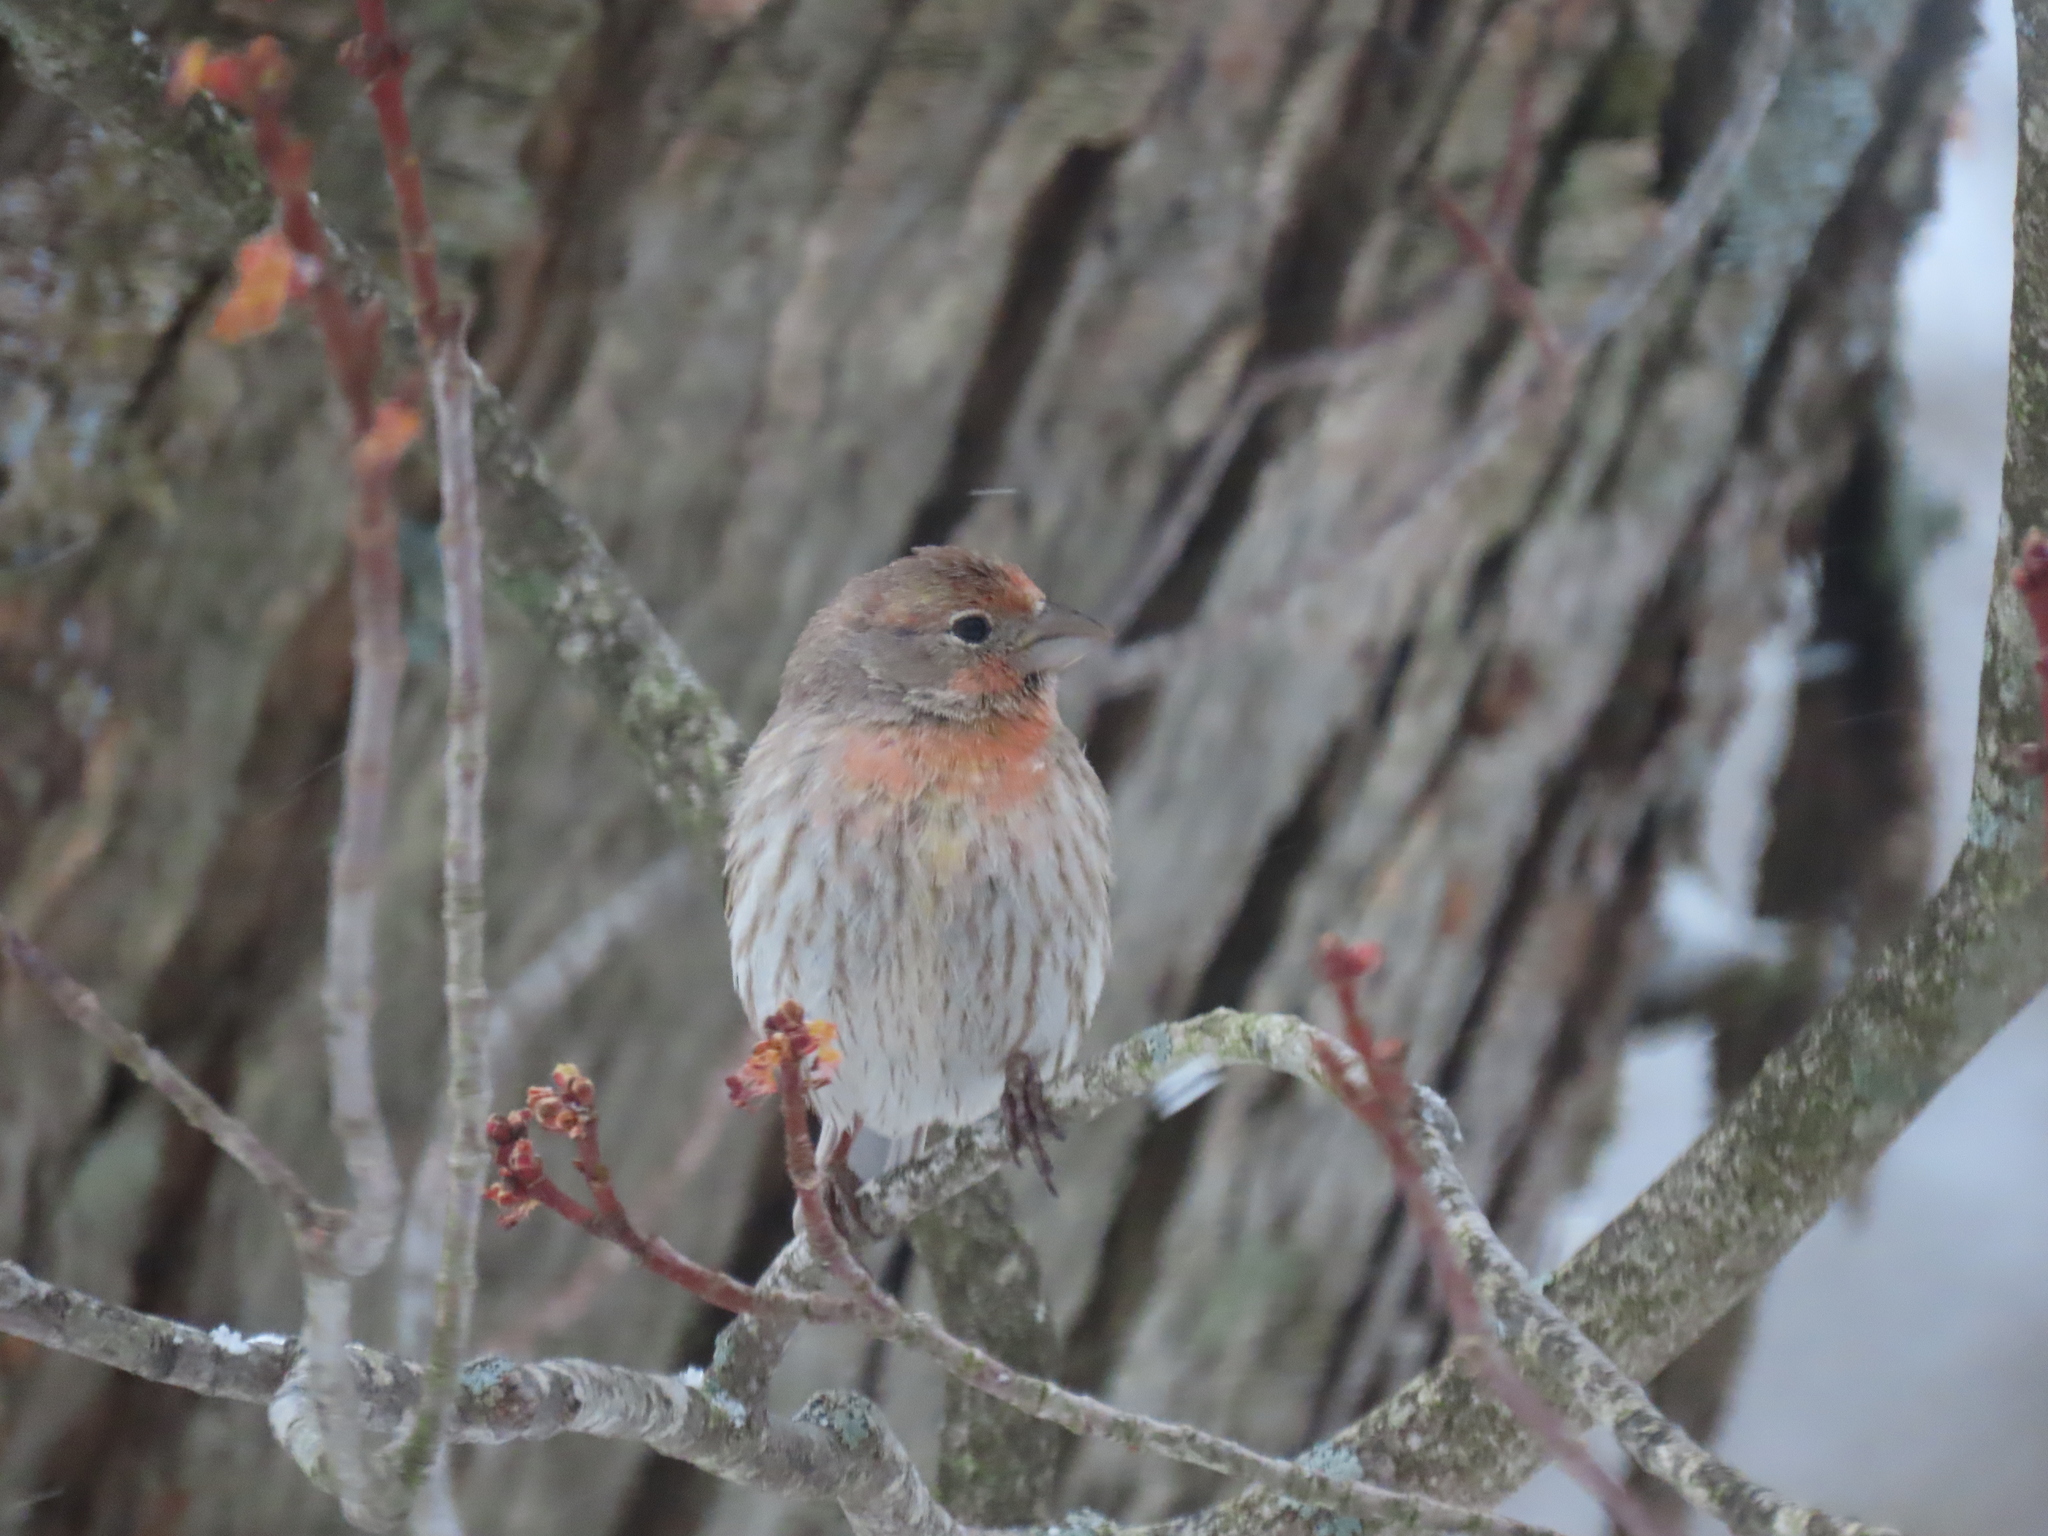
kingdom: Animalia
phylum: Chordata
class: Aves
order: Passeriformes
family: Fringillidae
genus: Haemorhous
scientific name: Haemorhous mexicanus
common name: House finch
